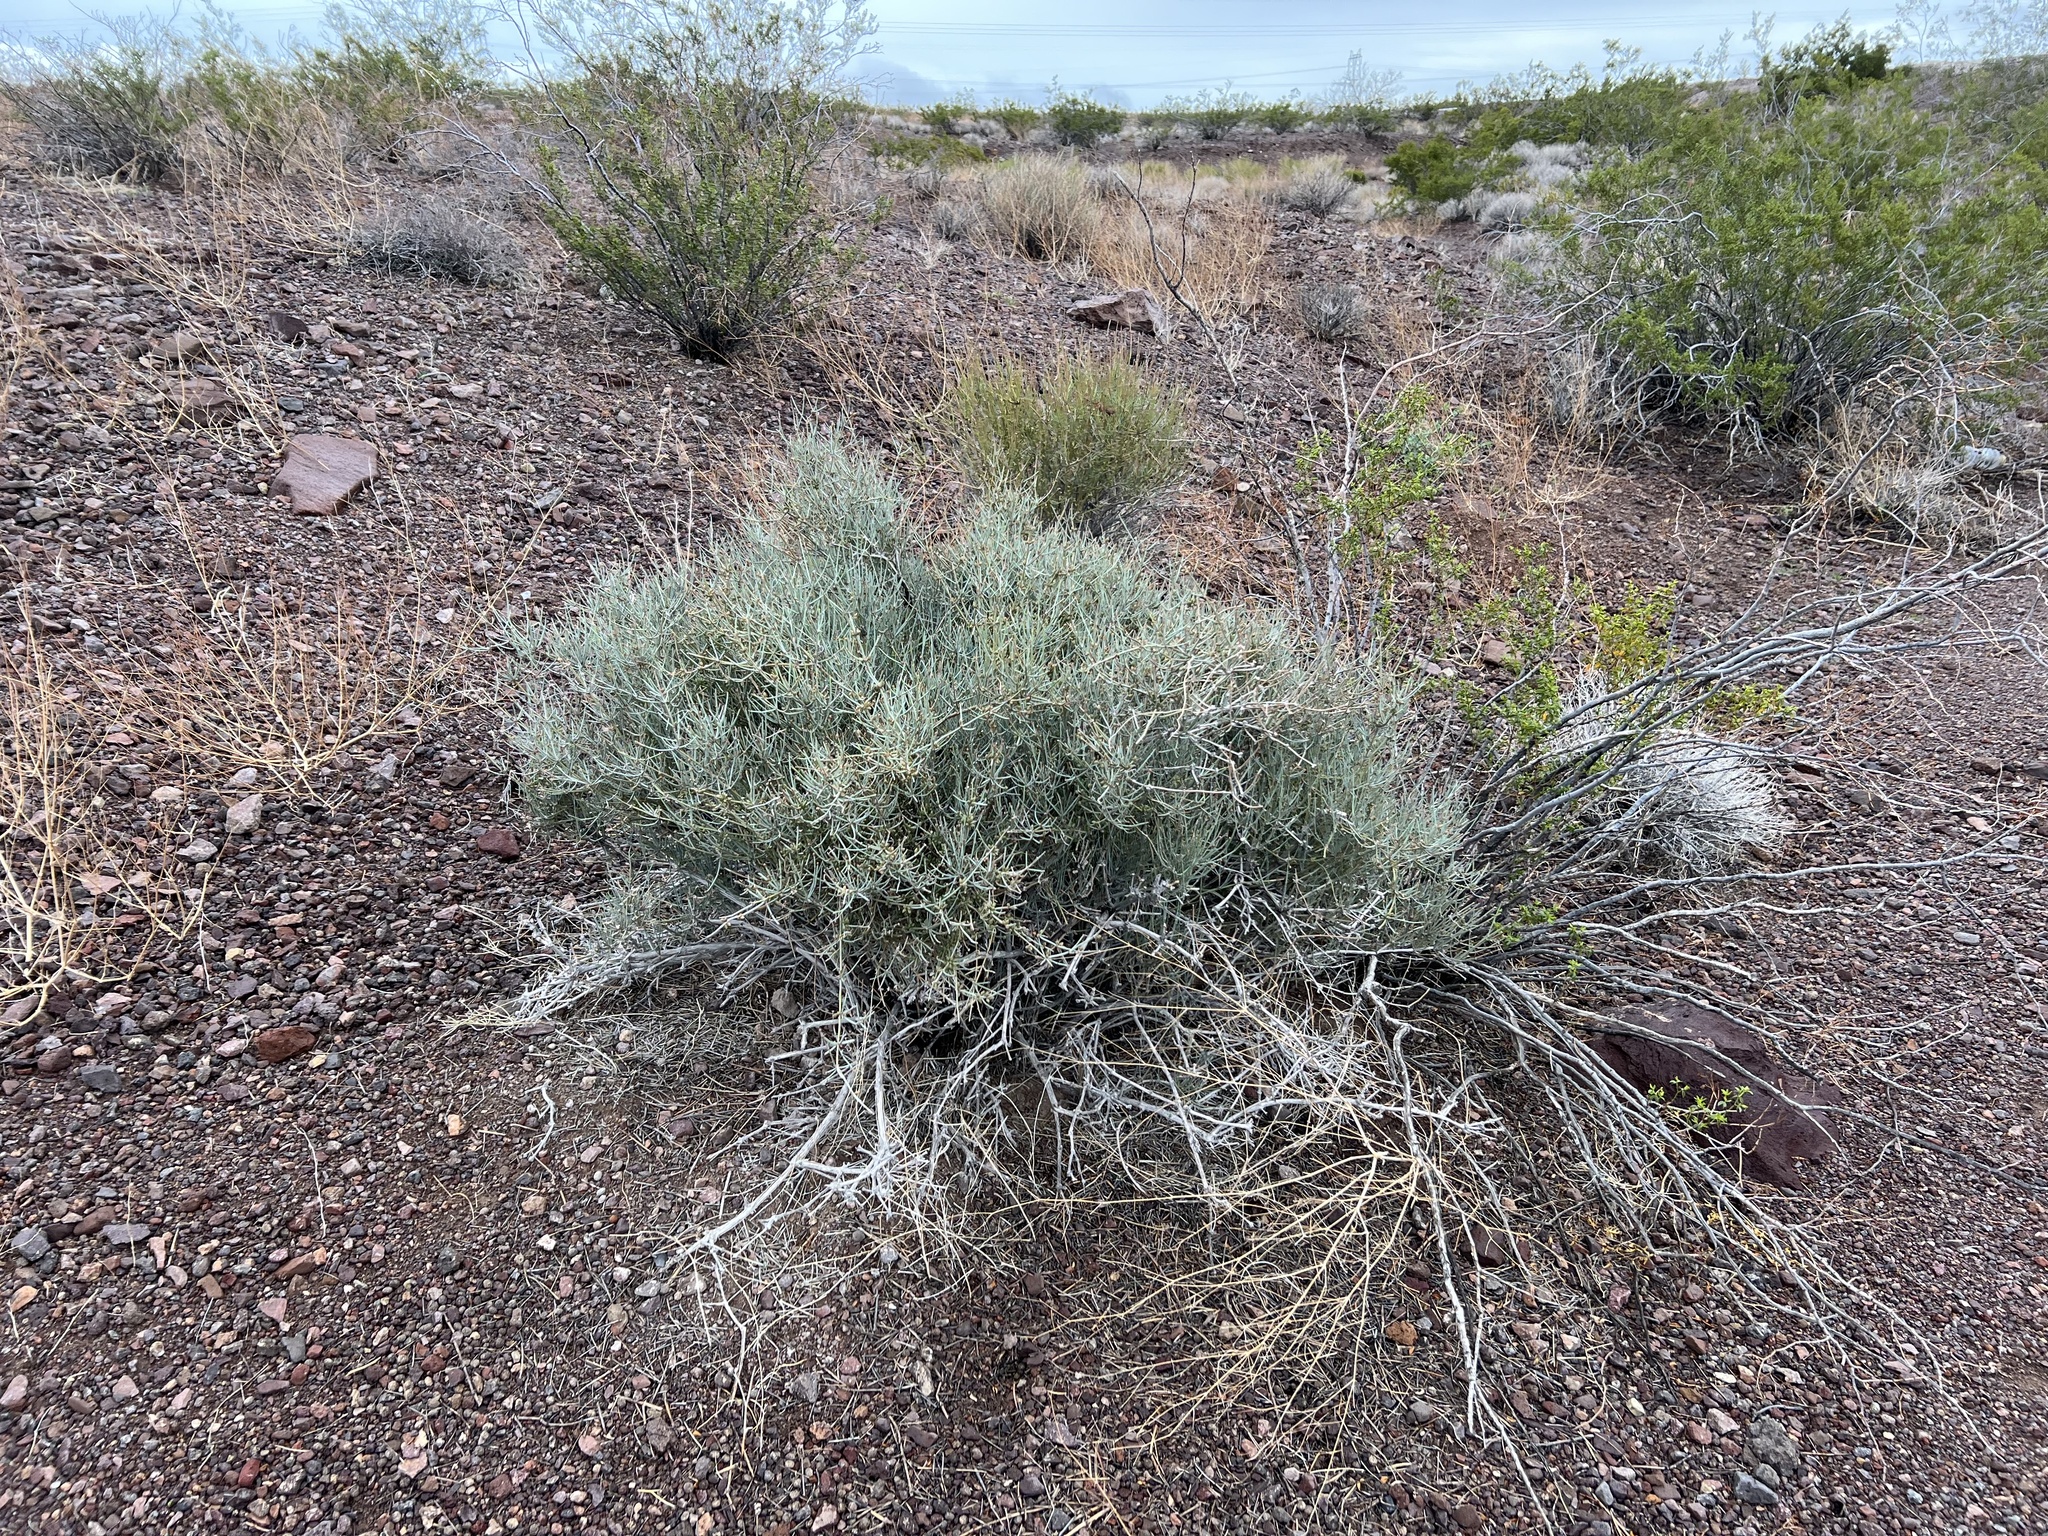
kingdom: Plantae
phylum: Tracheophyta
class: Gnetopsida
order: Ephedrales
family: Ephedraceae
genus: Ephedra
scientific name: Ephedra nevadensis
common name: Gray ephedra
